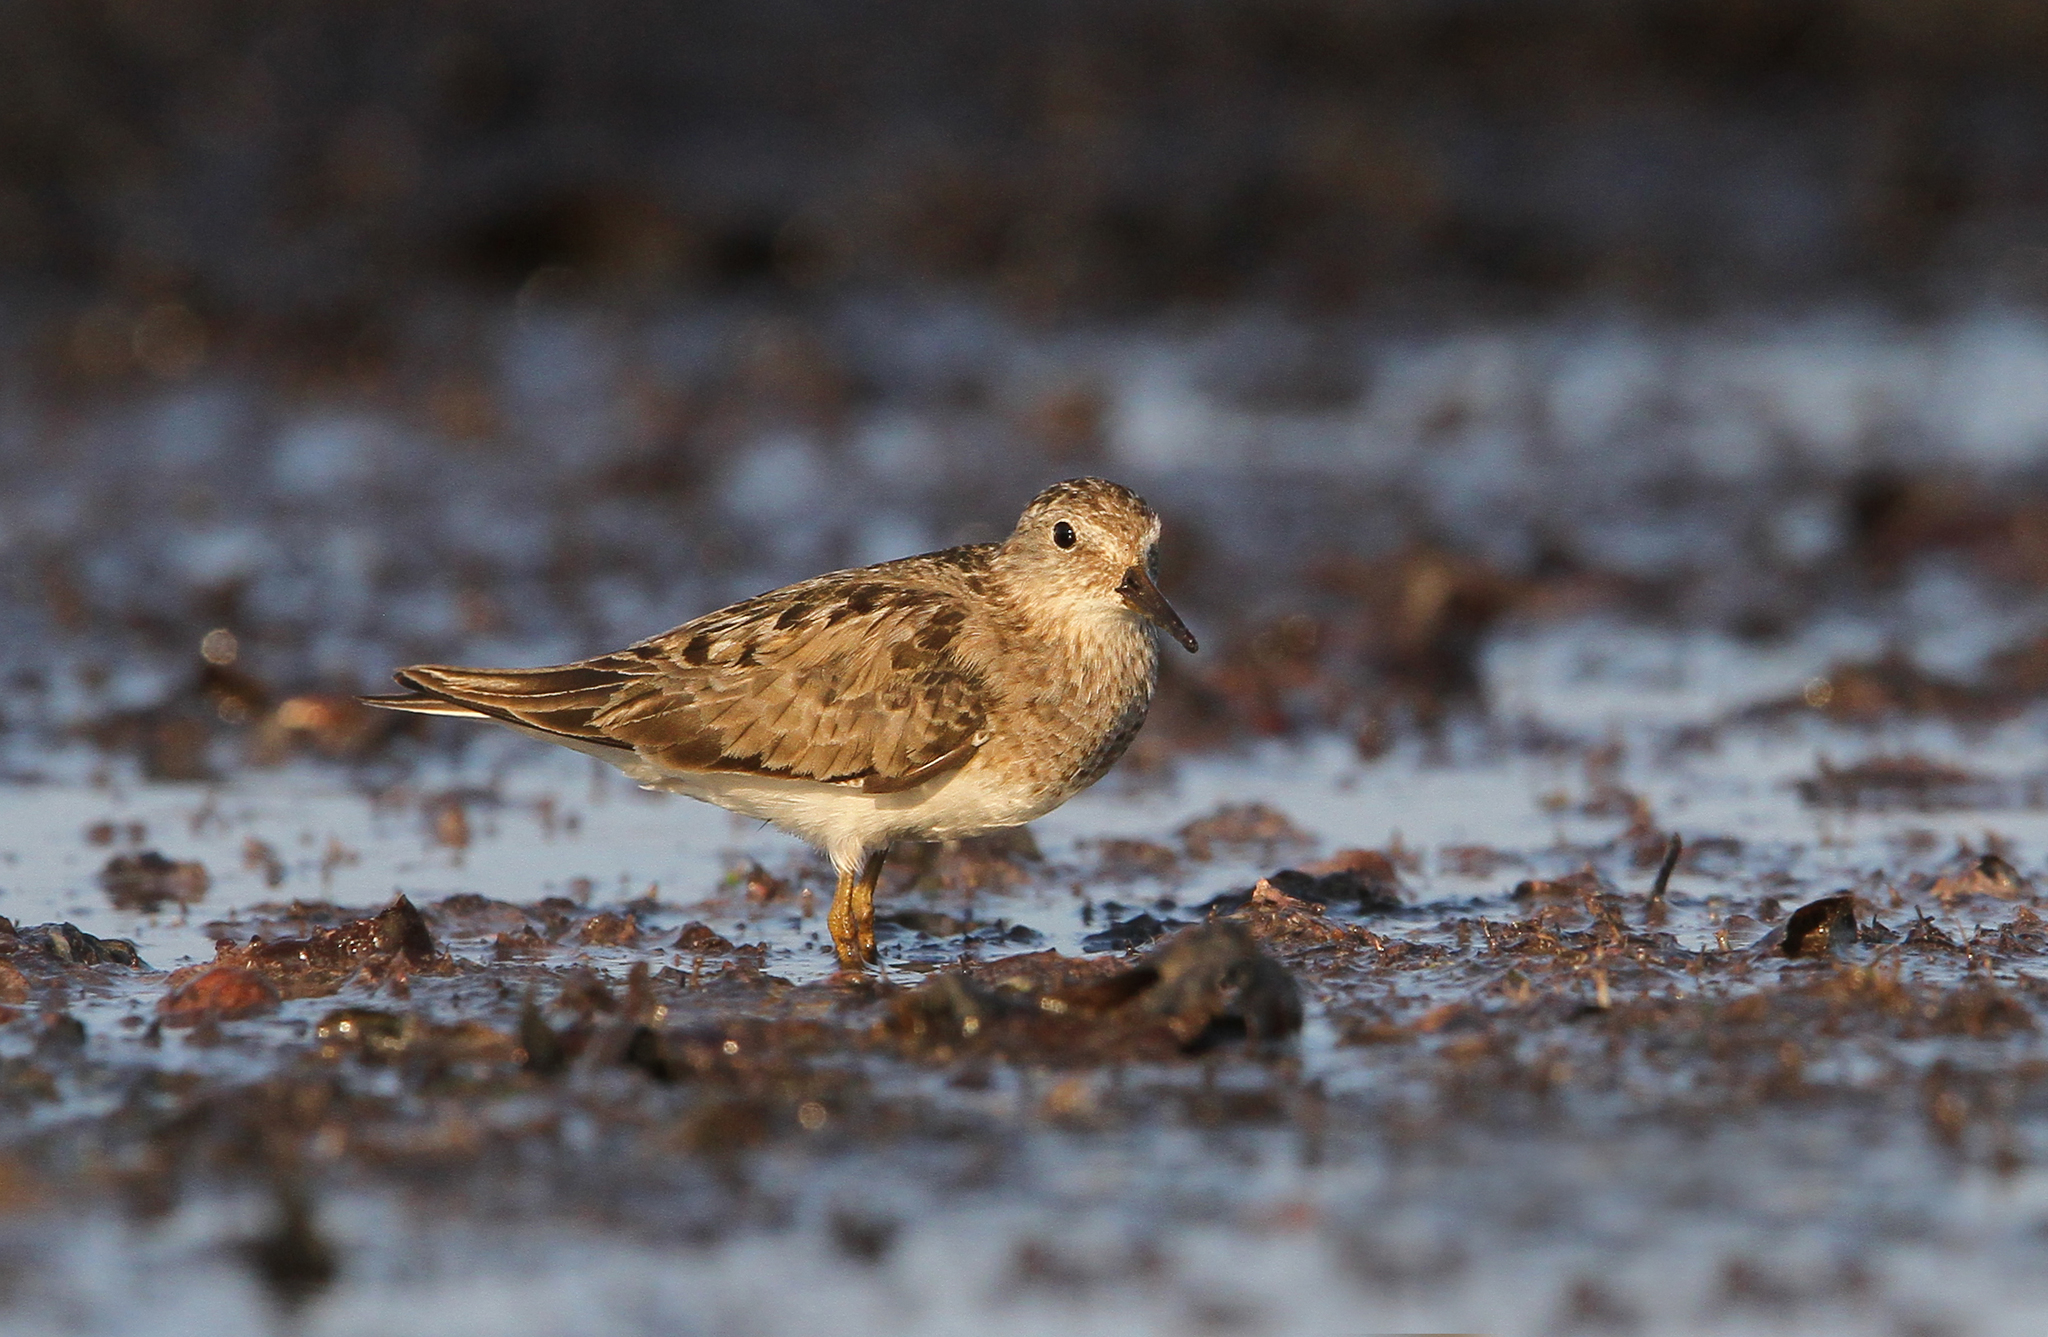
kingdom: Animalia
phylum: Chordata
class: Aves
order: Charadriiformes
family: Scolopacidae
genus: Calidris
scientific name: Calidris temminckii
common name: Temminck's stint
